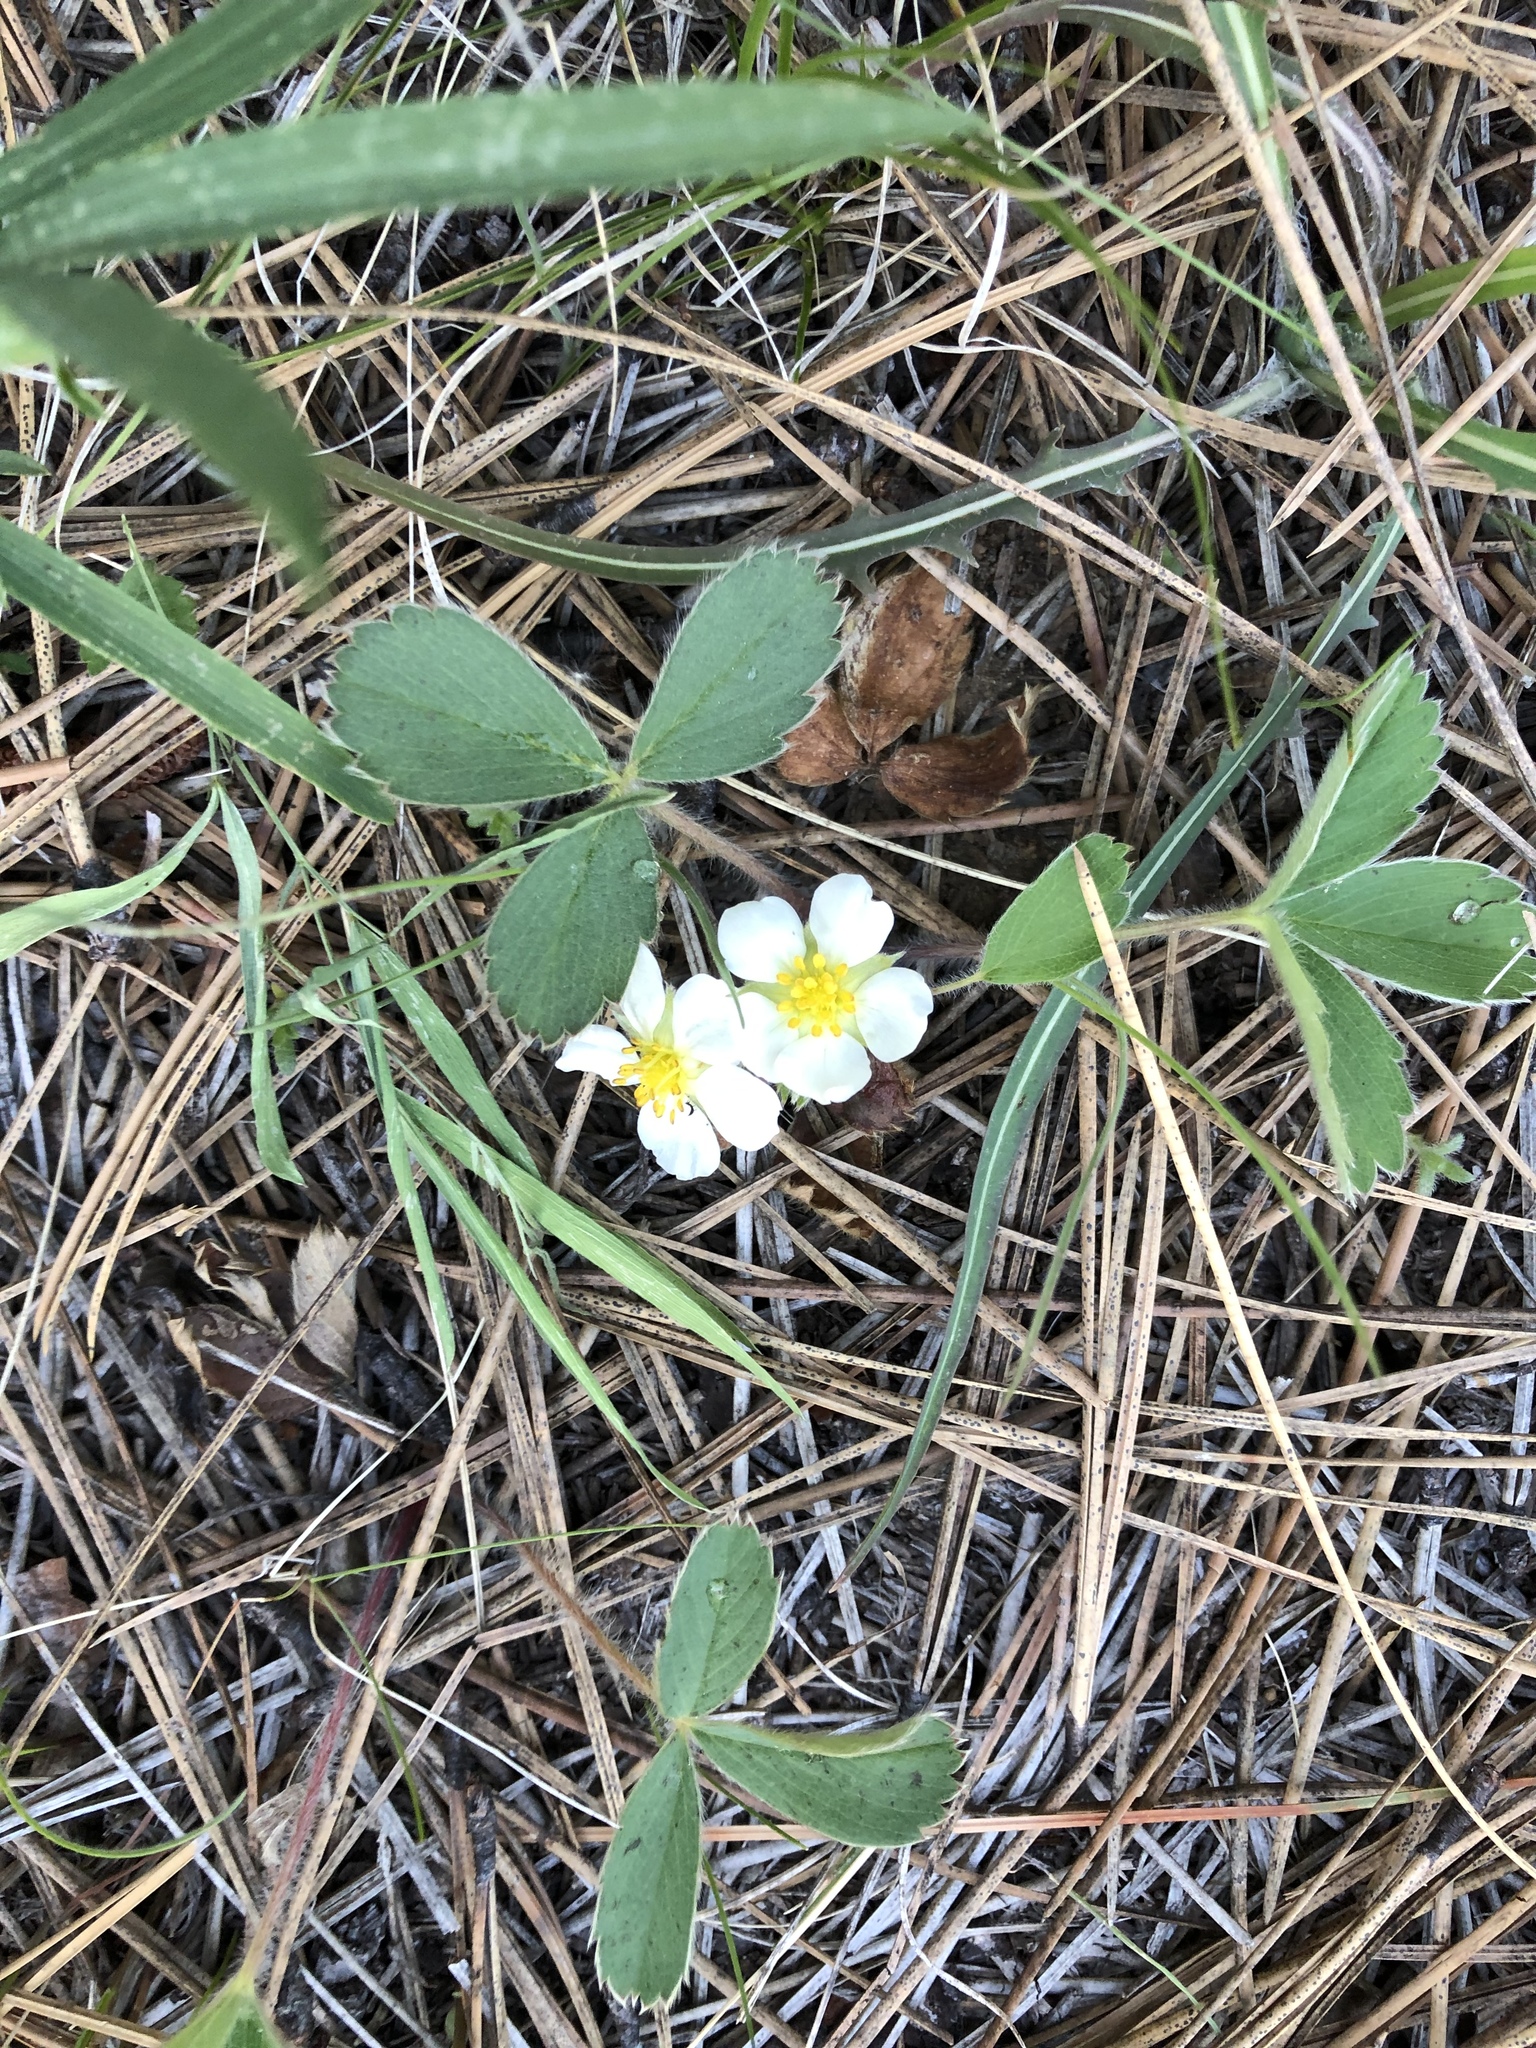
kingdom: Plantae
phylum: Tracheophyta
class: Magnoliopsida
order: Rosales
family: Rosaceae
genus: Fragaria
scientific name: Fragaria virginiana
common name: Thickleaved wild strawberry
